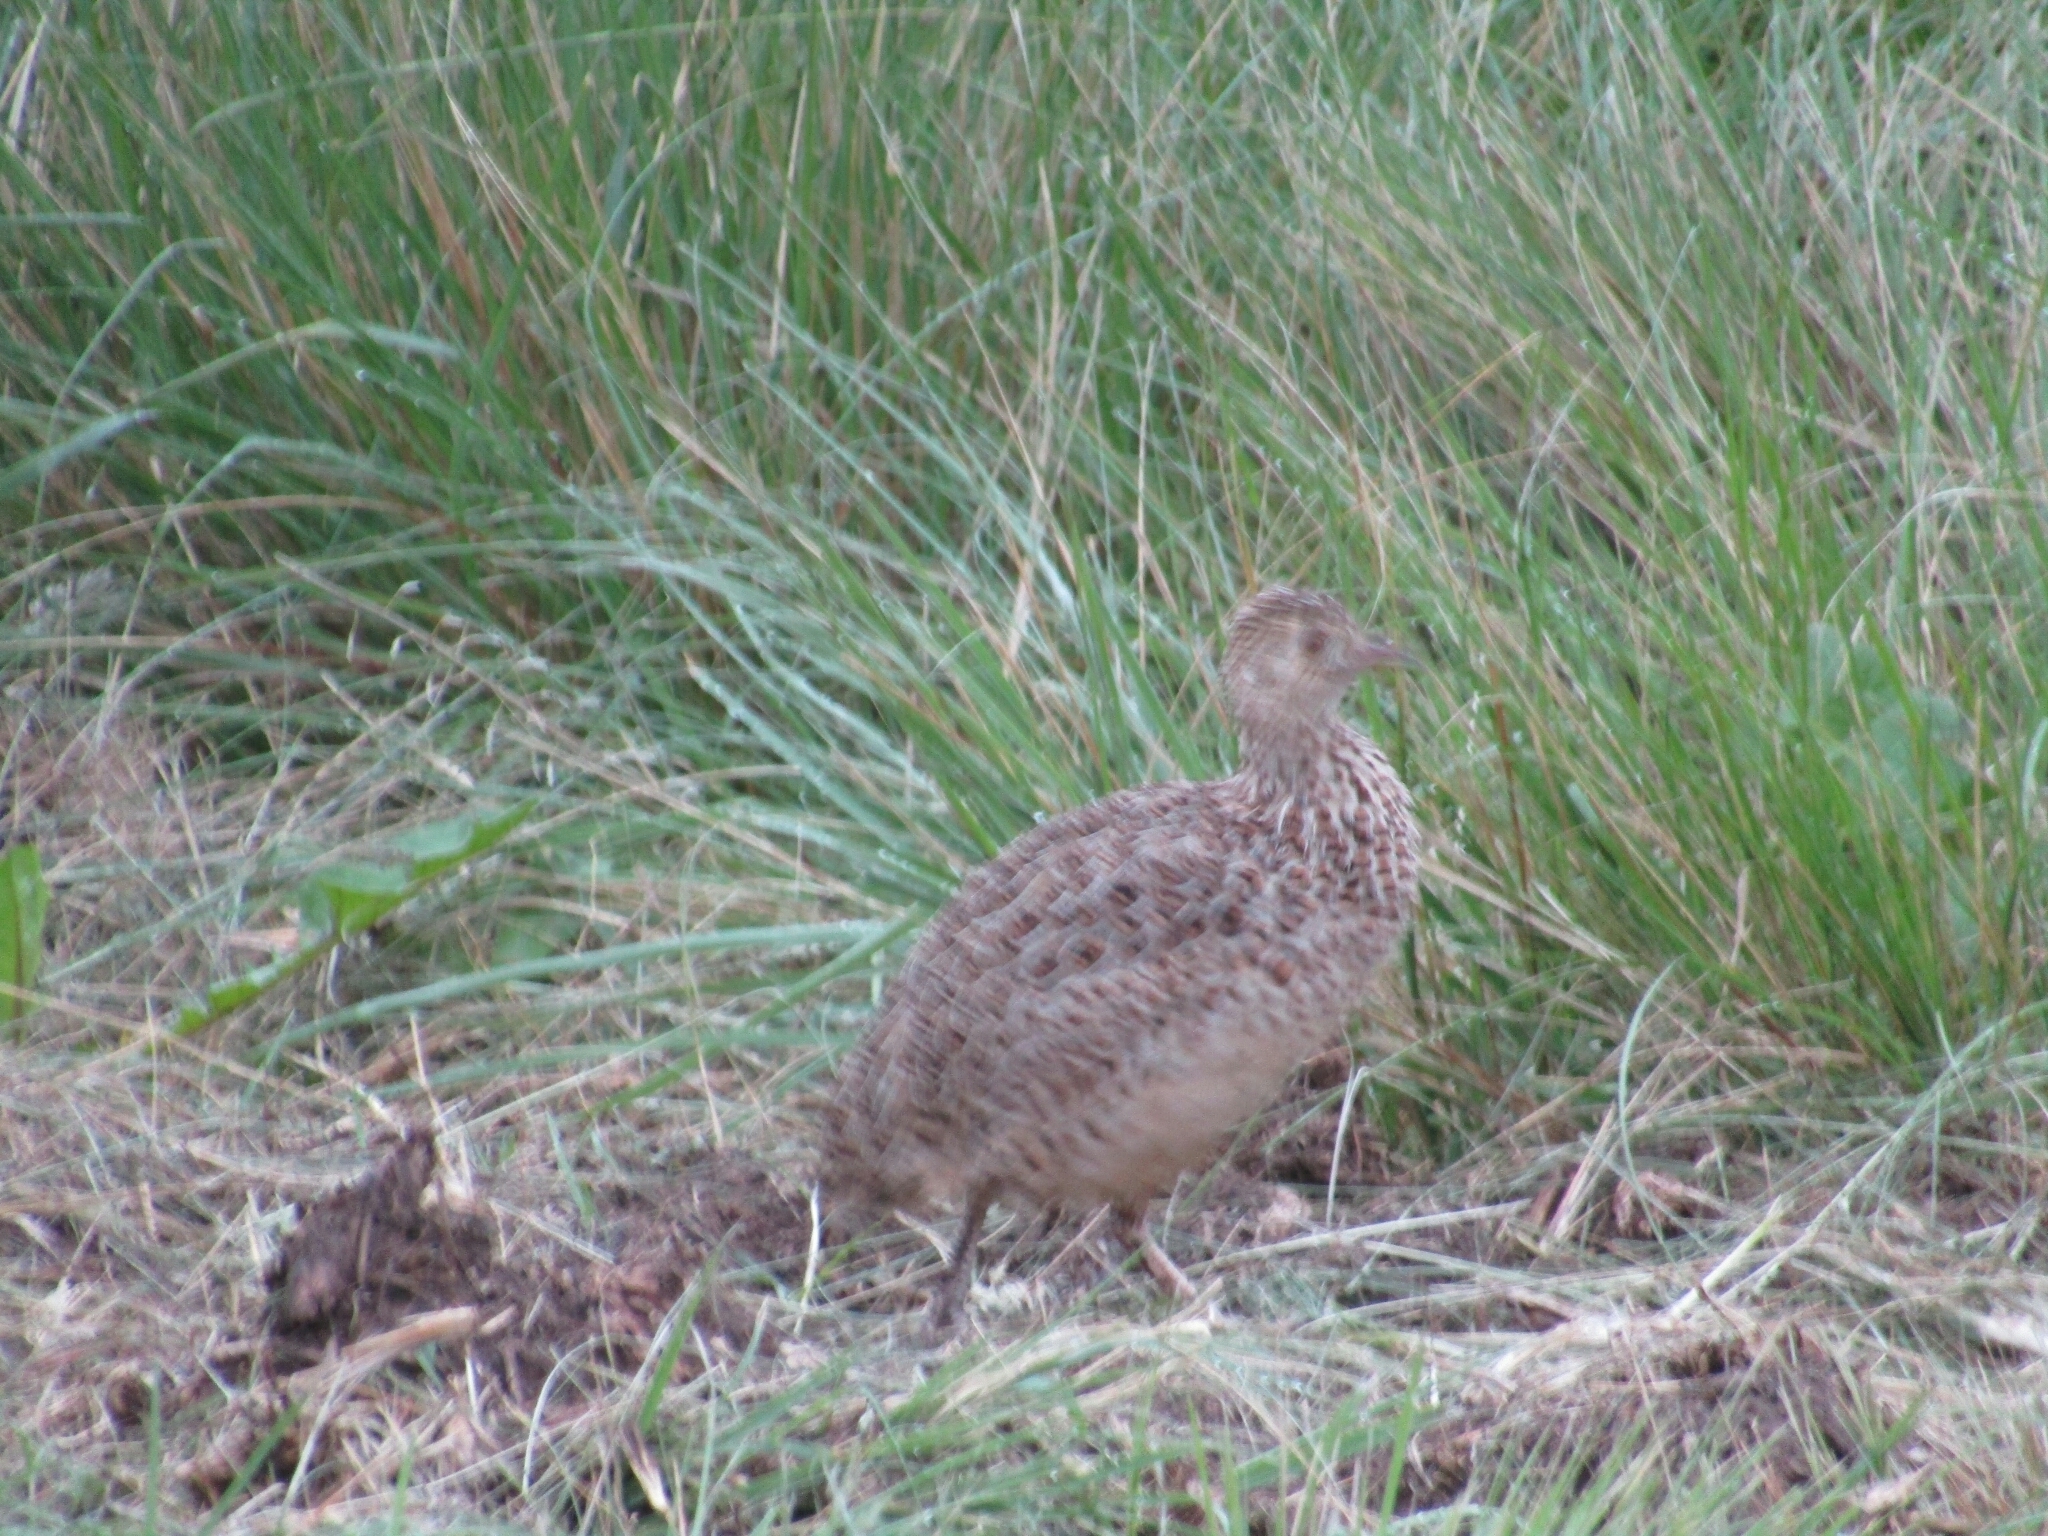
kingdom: Animalia
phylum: Chordata
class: Aves
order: Tinamiformes
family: Tinamidae
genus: Nothura
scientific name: Nothura darwinii
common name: Darwin's nothura
